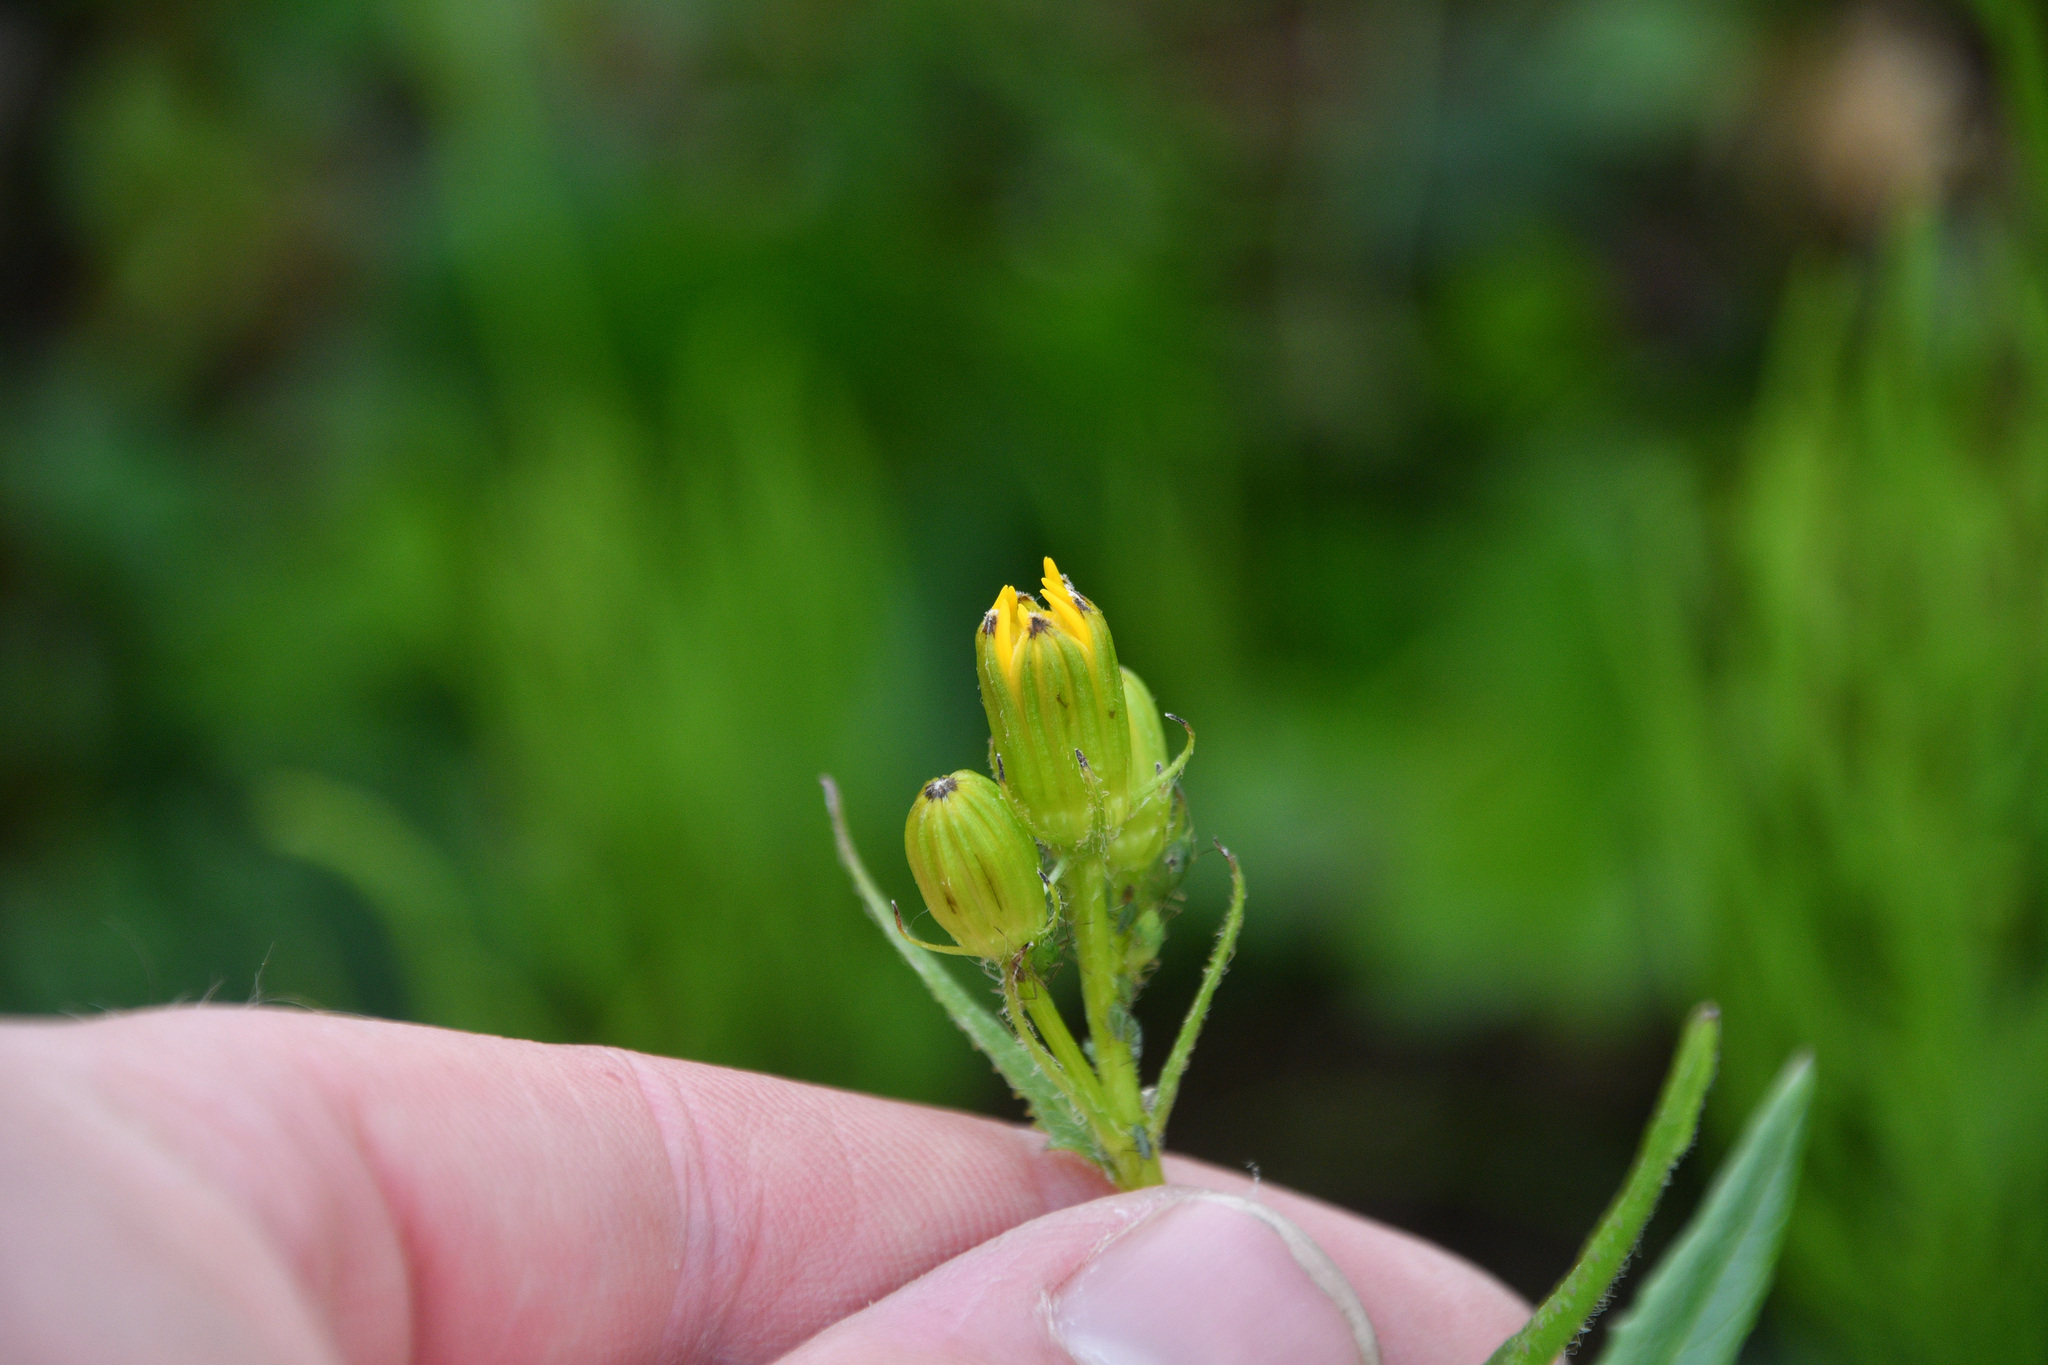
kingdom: Plantae
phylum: Tracheophyta
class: Magnoliopsida
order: Asterales
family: Asteraceae
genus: Senecio
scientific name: Senecio triangularis
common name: Arrowleaf butterweed
